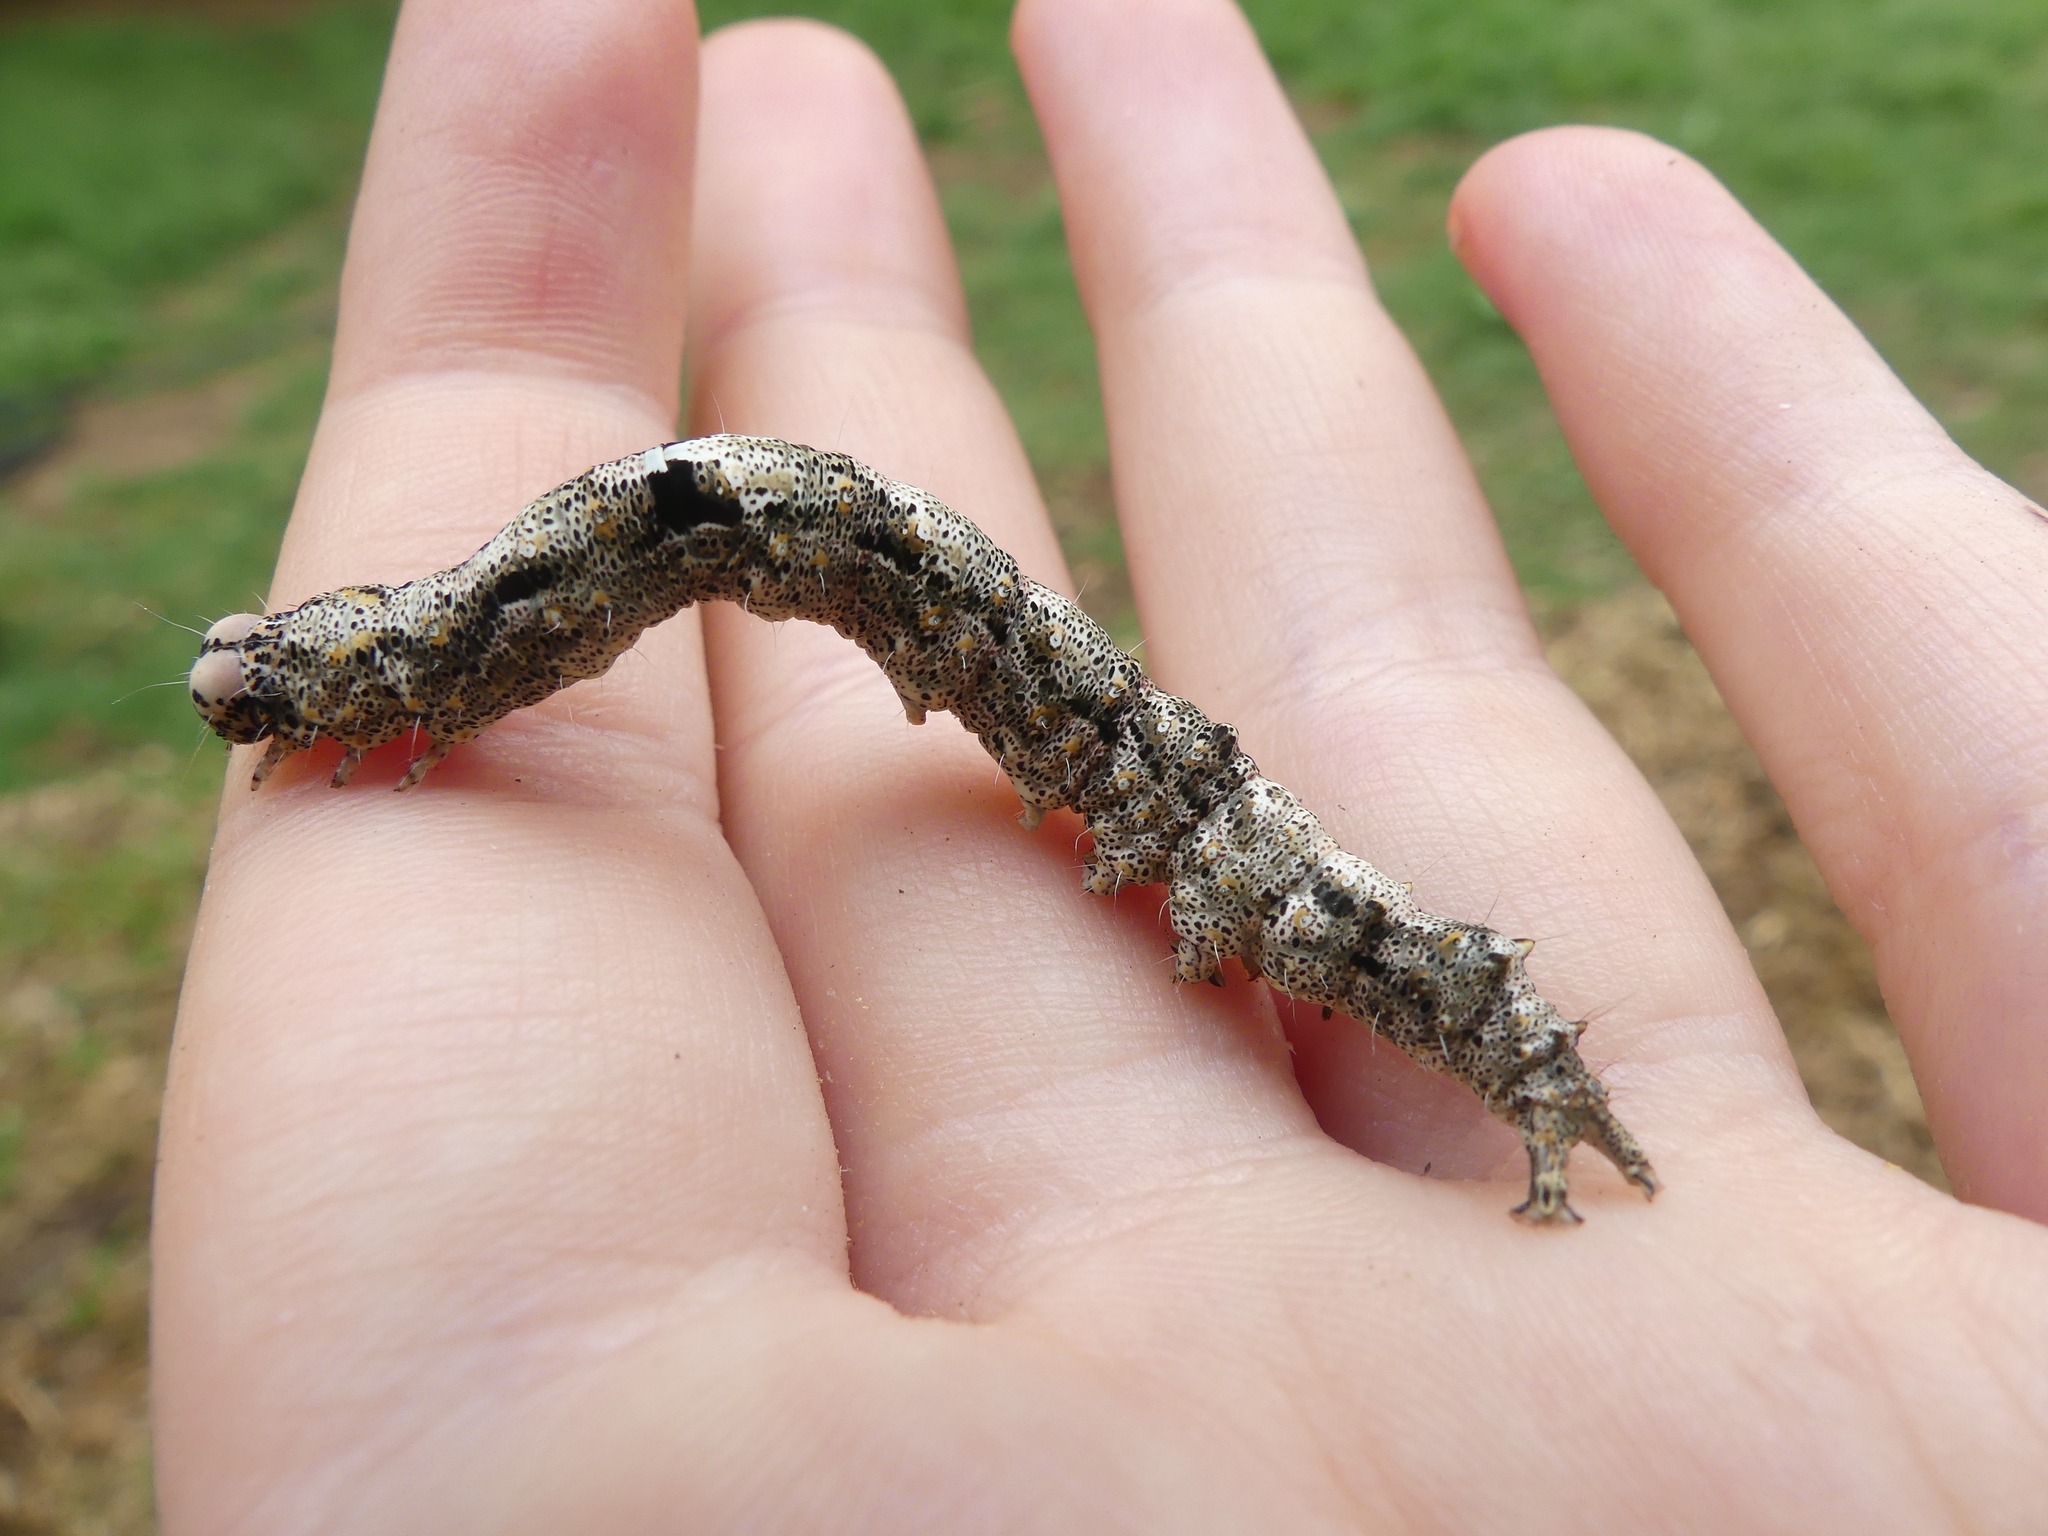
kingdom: Animalia
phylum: Arthropoda
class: Insecta
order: Lepidoptera
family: Erebidae
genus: Metria
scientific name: Metria amella
